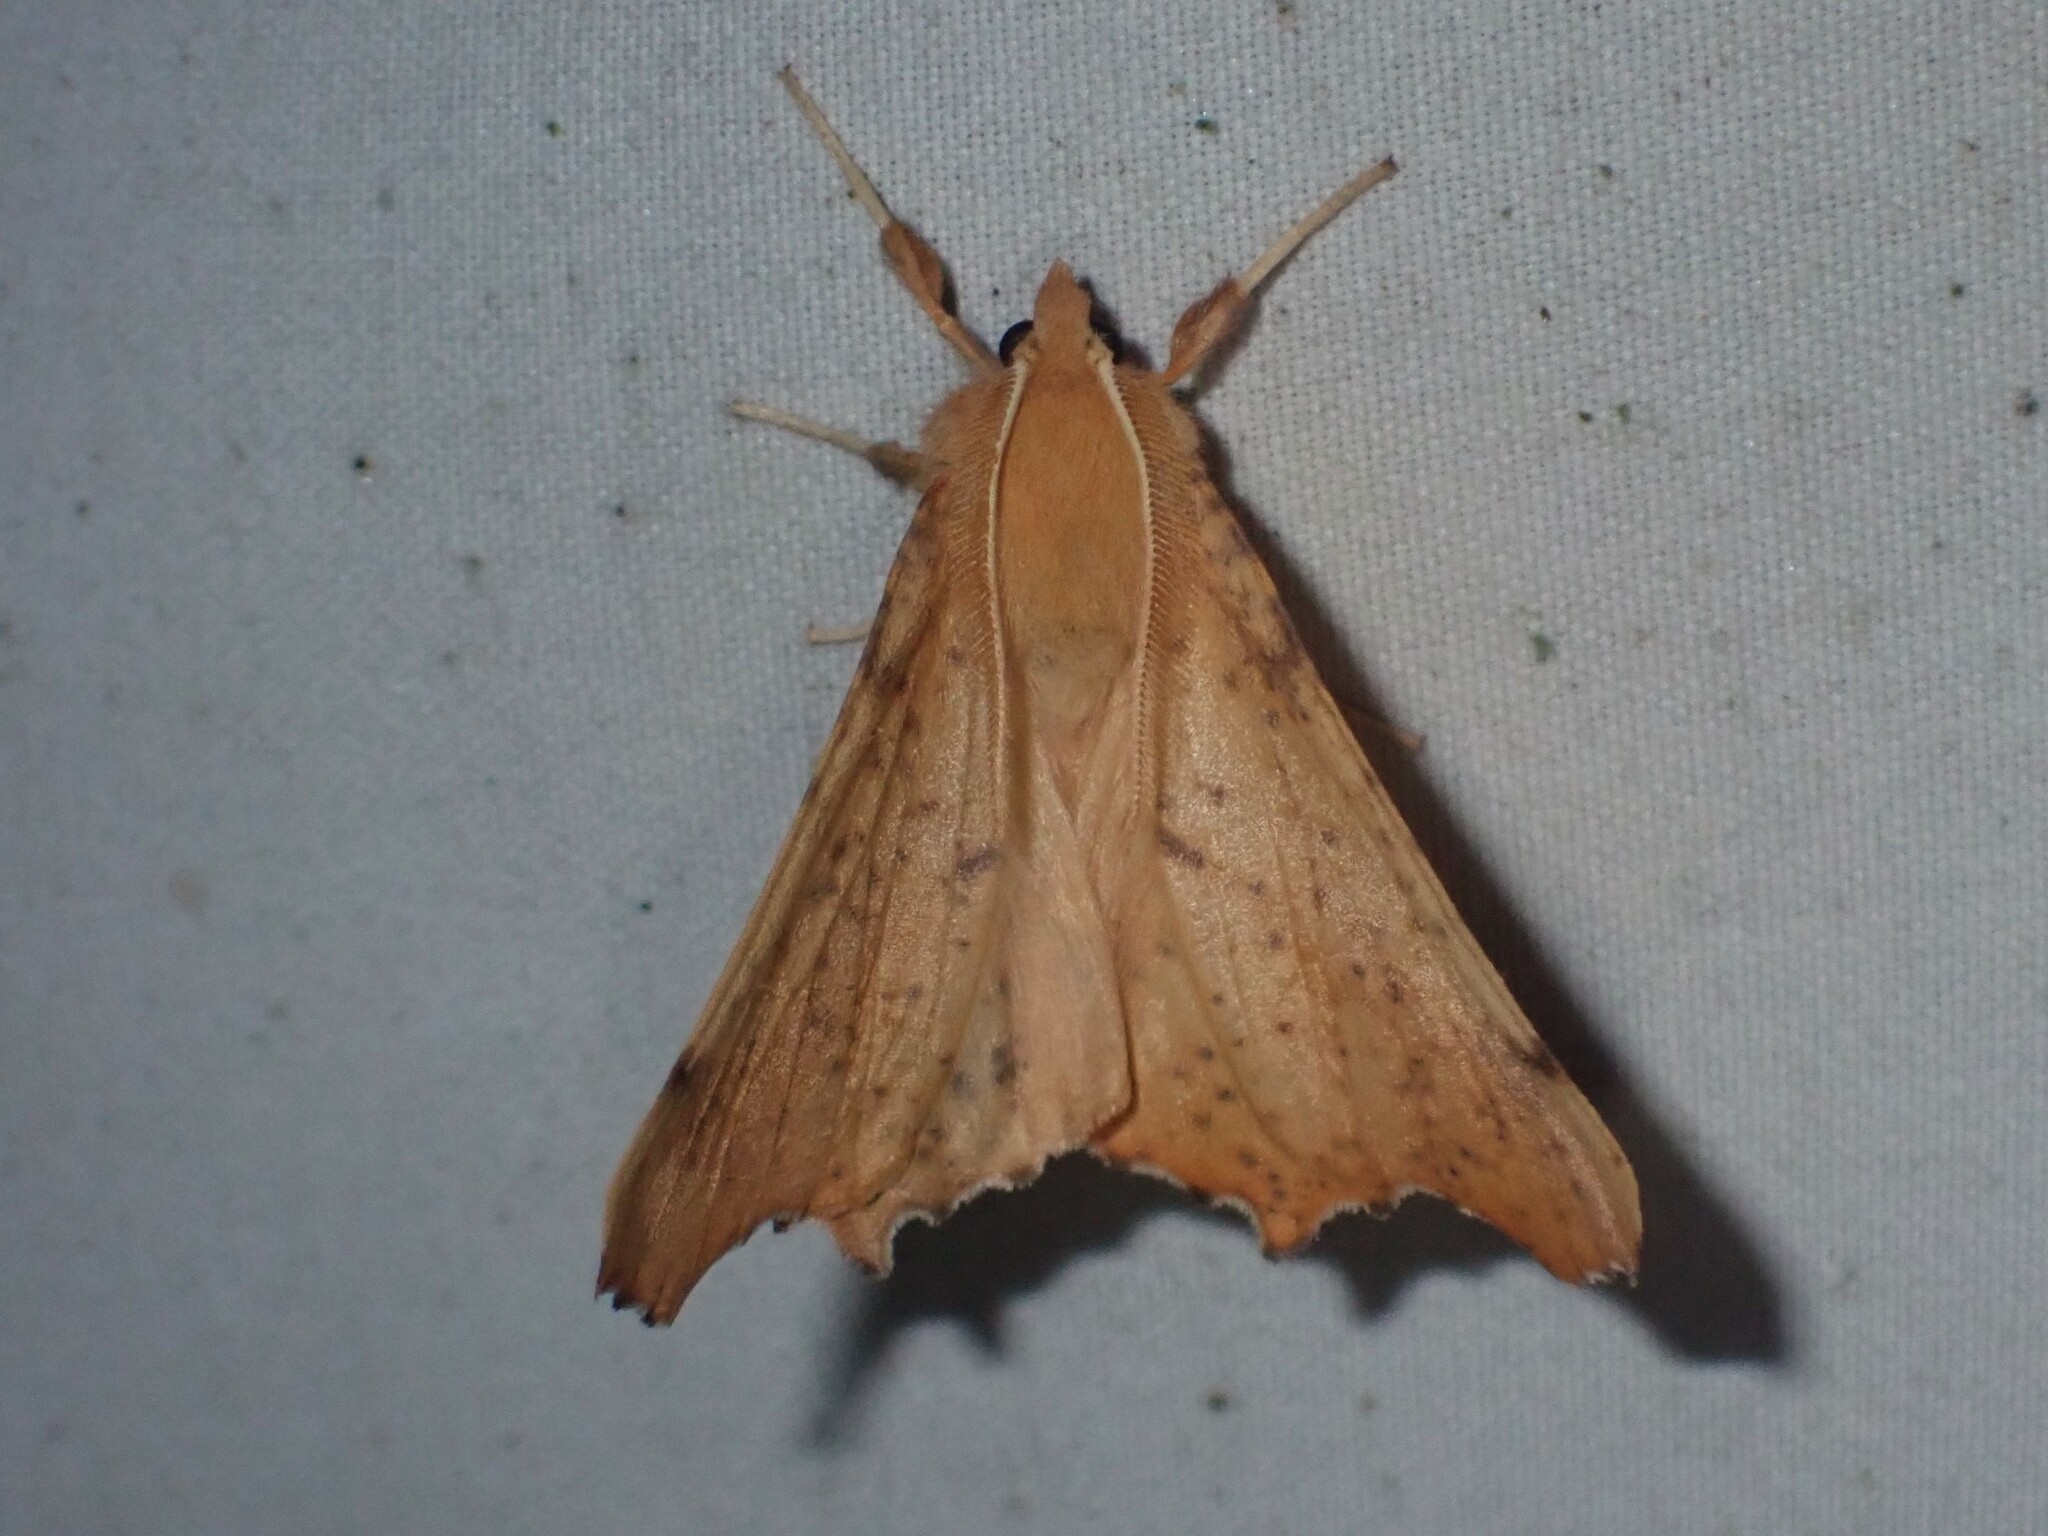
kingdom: Animalia
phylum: Arthropoda
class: Insecta
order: Lepidoptera
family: Geometridae
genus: Ennomos
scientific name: Ennomos magnaria
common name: Maple spanworm
